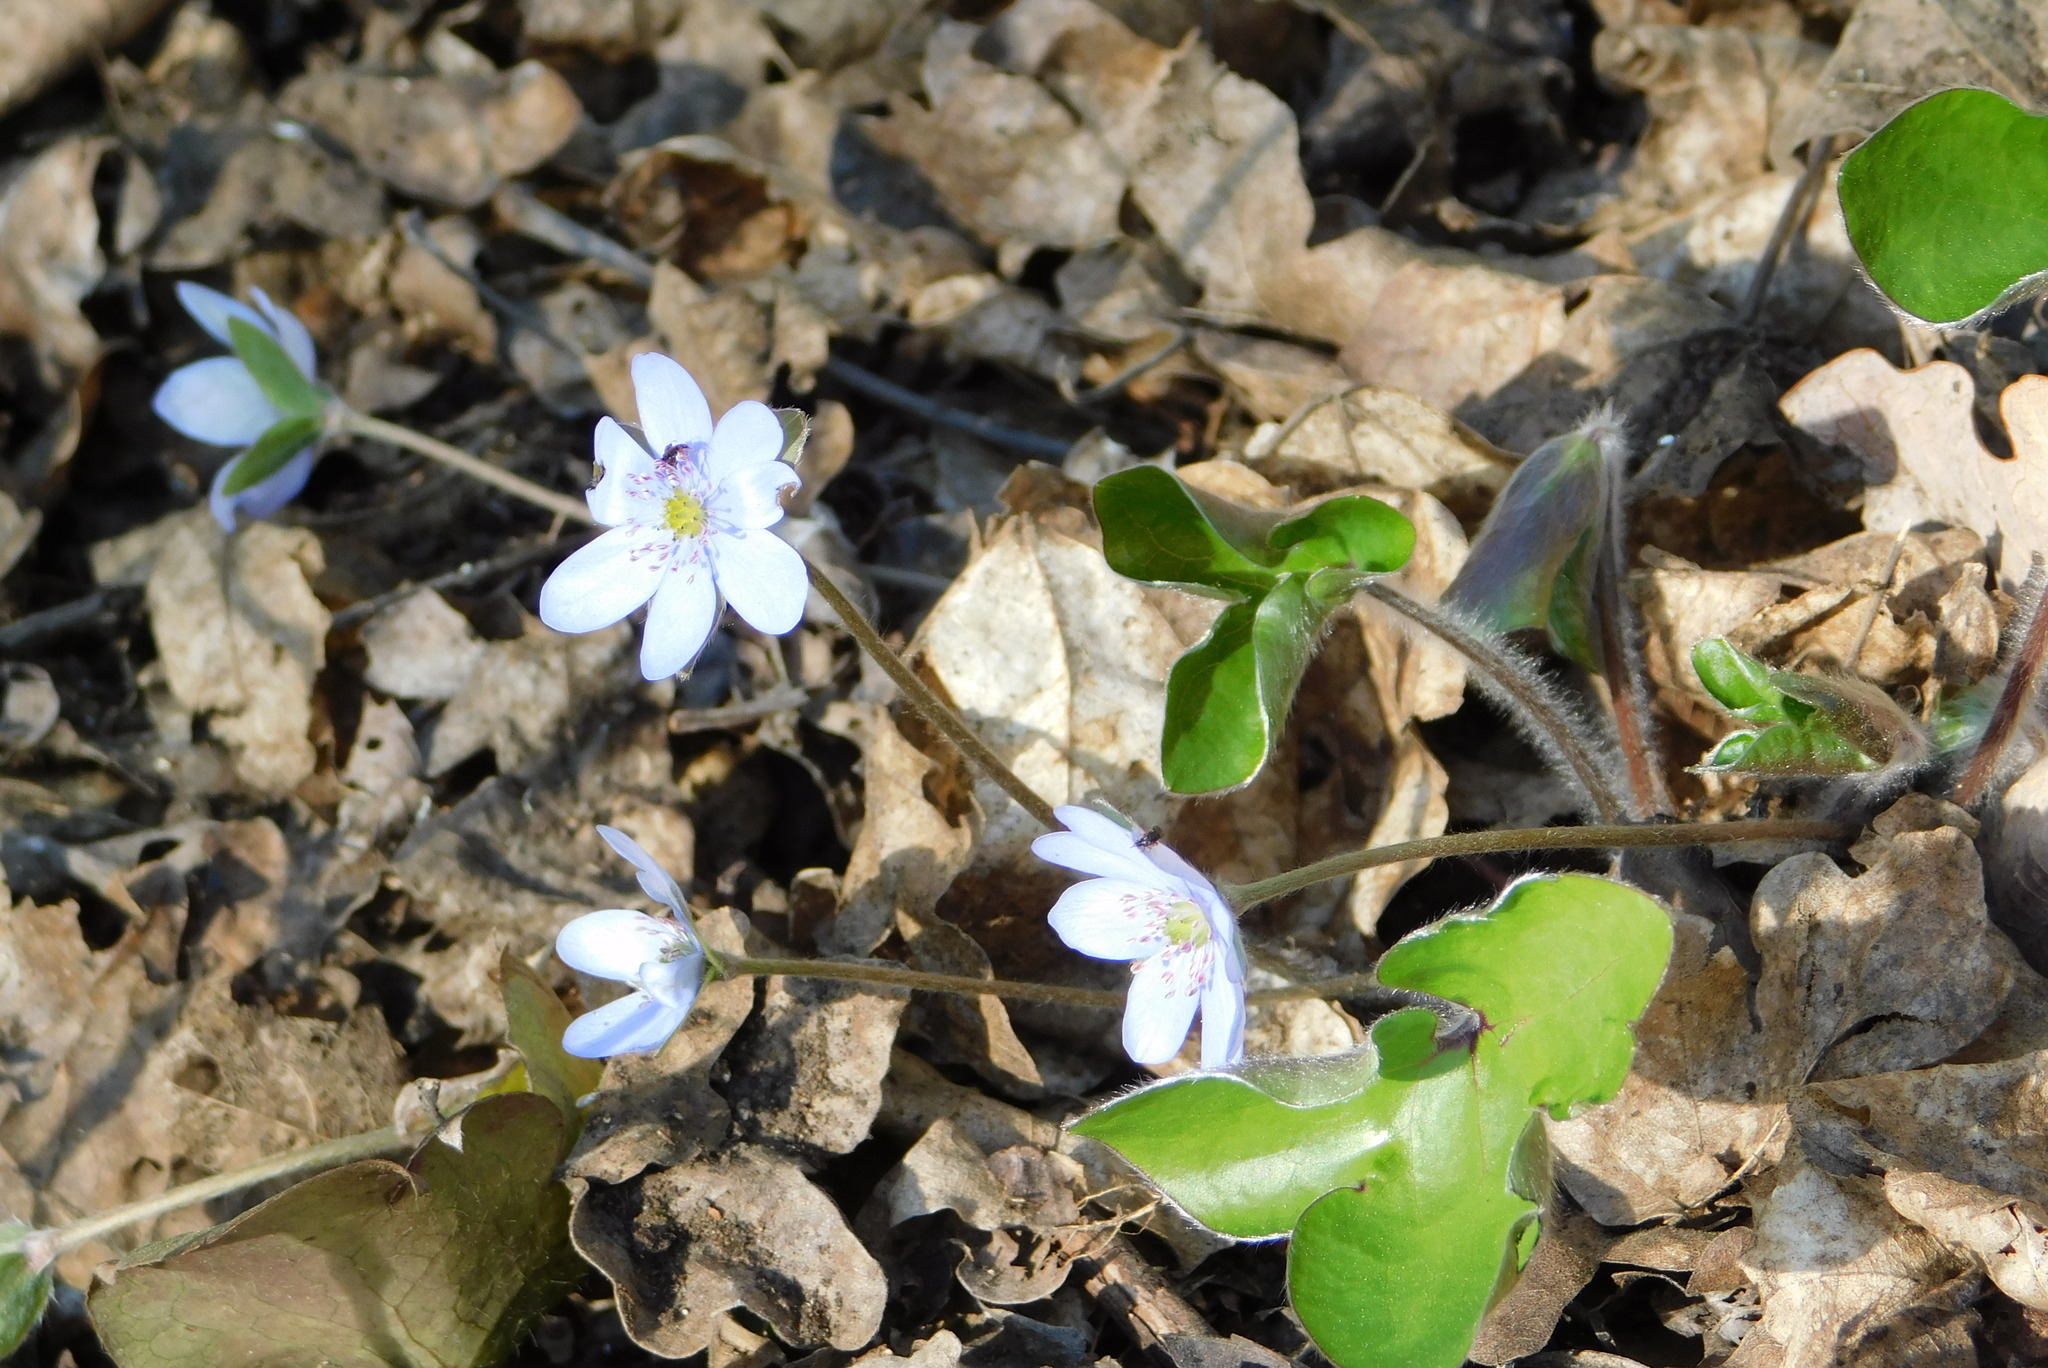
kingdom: Plantae
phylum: Tracheophyta
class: Magnoliopsida
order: Ranunculales
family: Ranunculaceae
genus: Hepatica
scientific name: Hepatica nobilis
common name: Liverleaf
